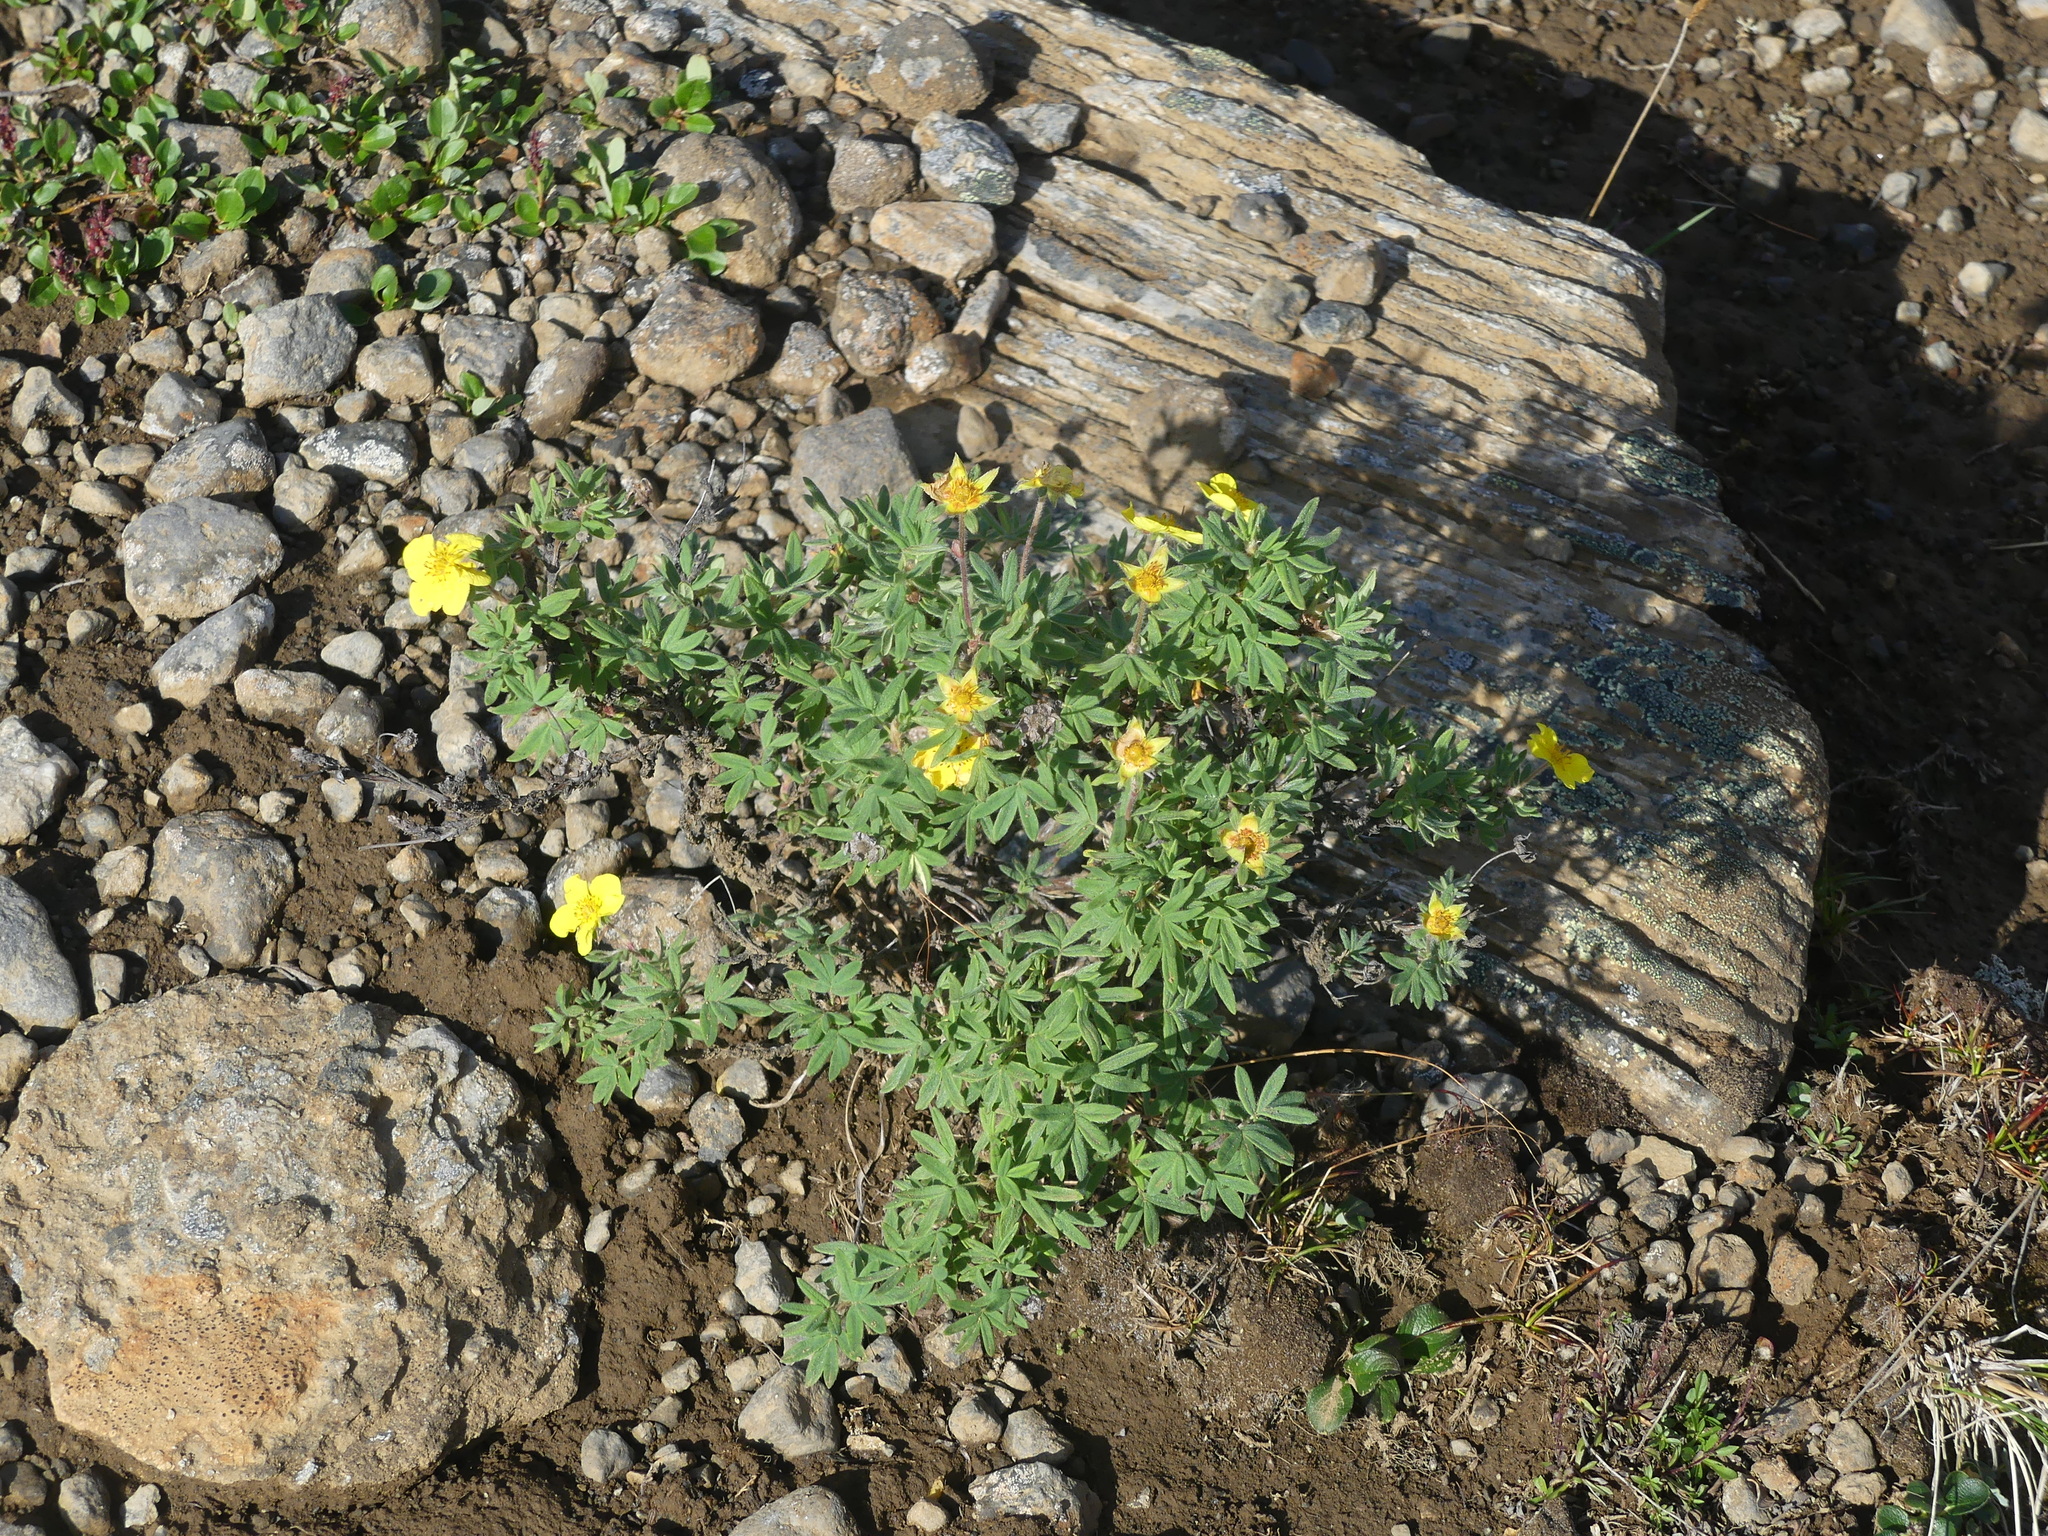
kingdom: Plantae
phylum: Tracheophyta
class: Magnoliopsida
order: Rosales
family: Rosaceae
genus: Dasiphora
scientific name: Dasiphora fruticosa
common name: Shrubby cinquefoil
